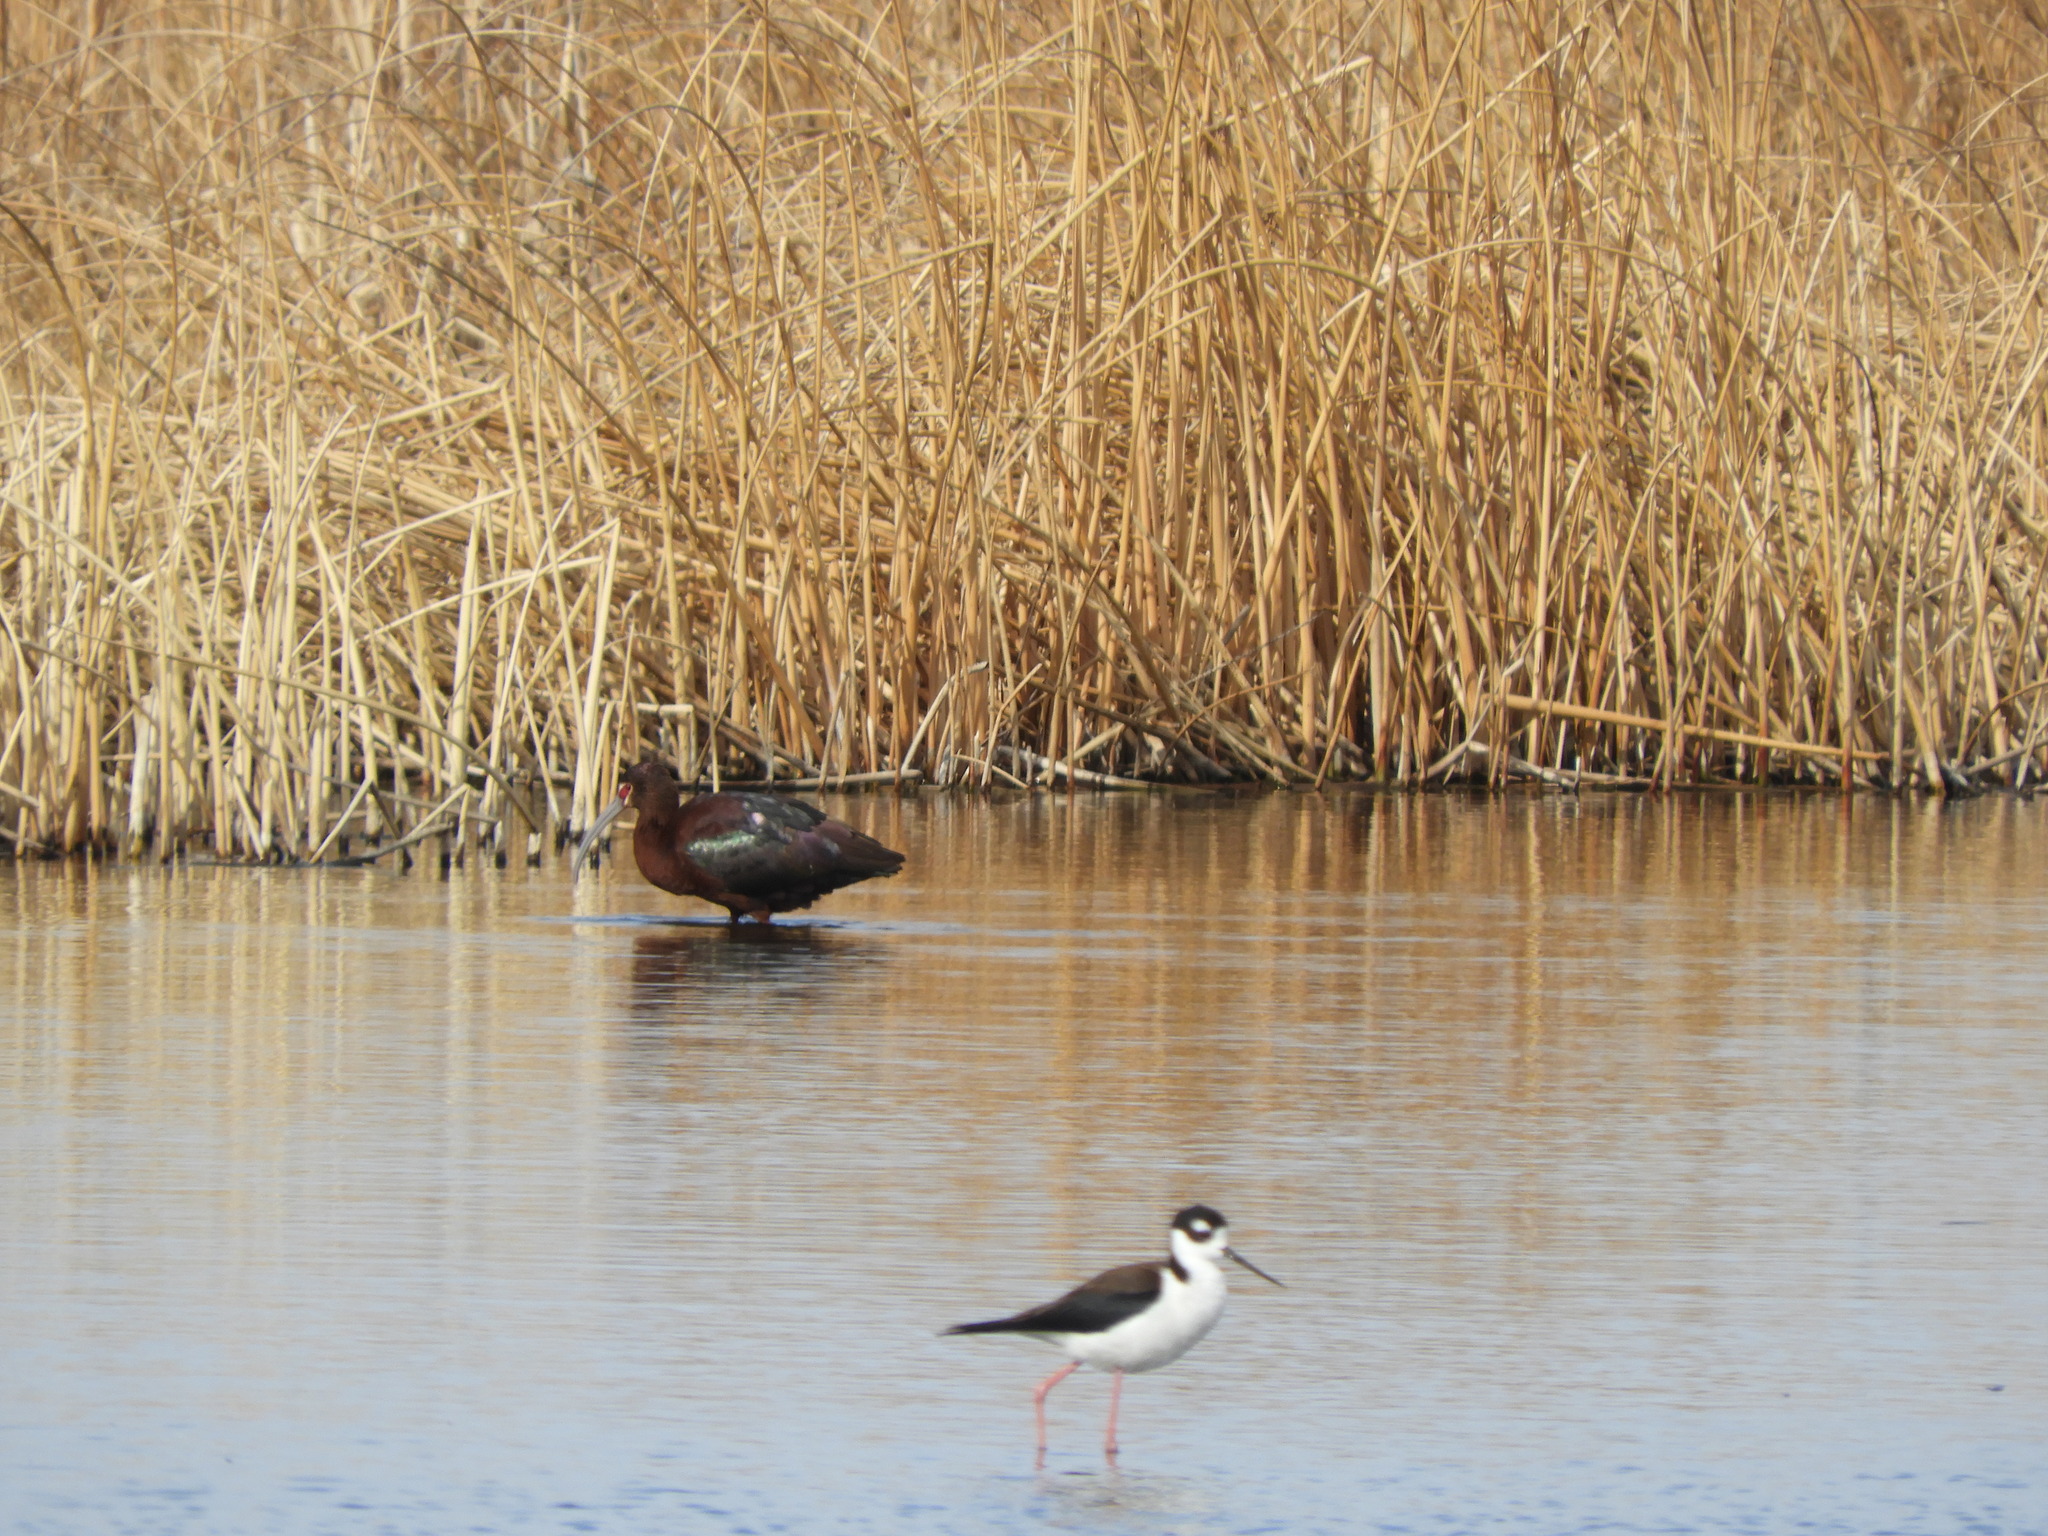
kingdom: Animalia
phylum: Chordata
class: Aves
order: Pelecaniformes
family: Threskiornithidae
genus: Plegadis
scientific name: Plegadis chihi
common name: White-faced ibis
